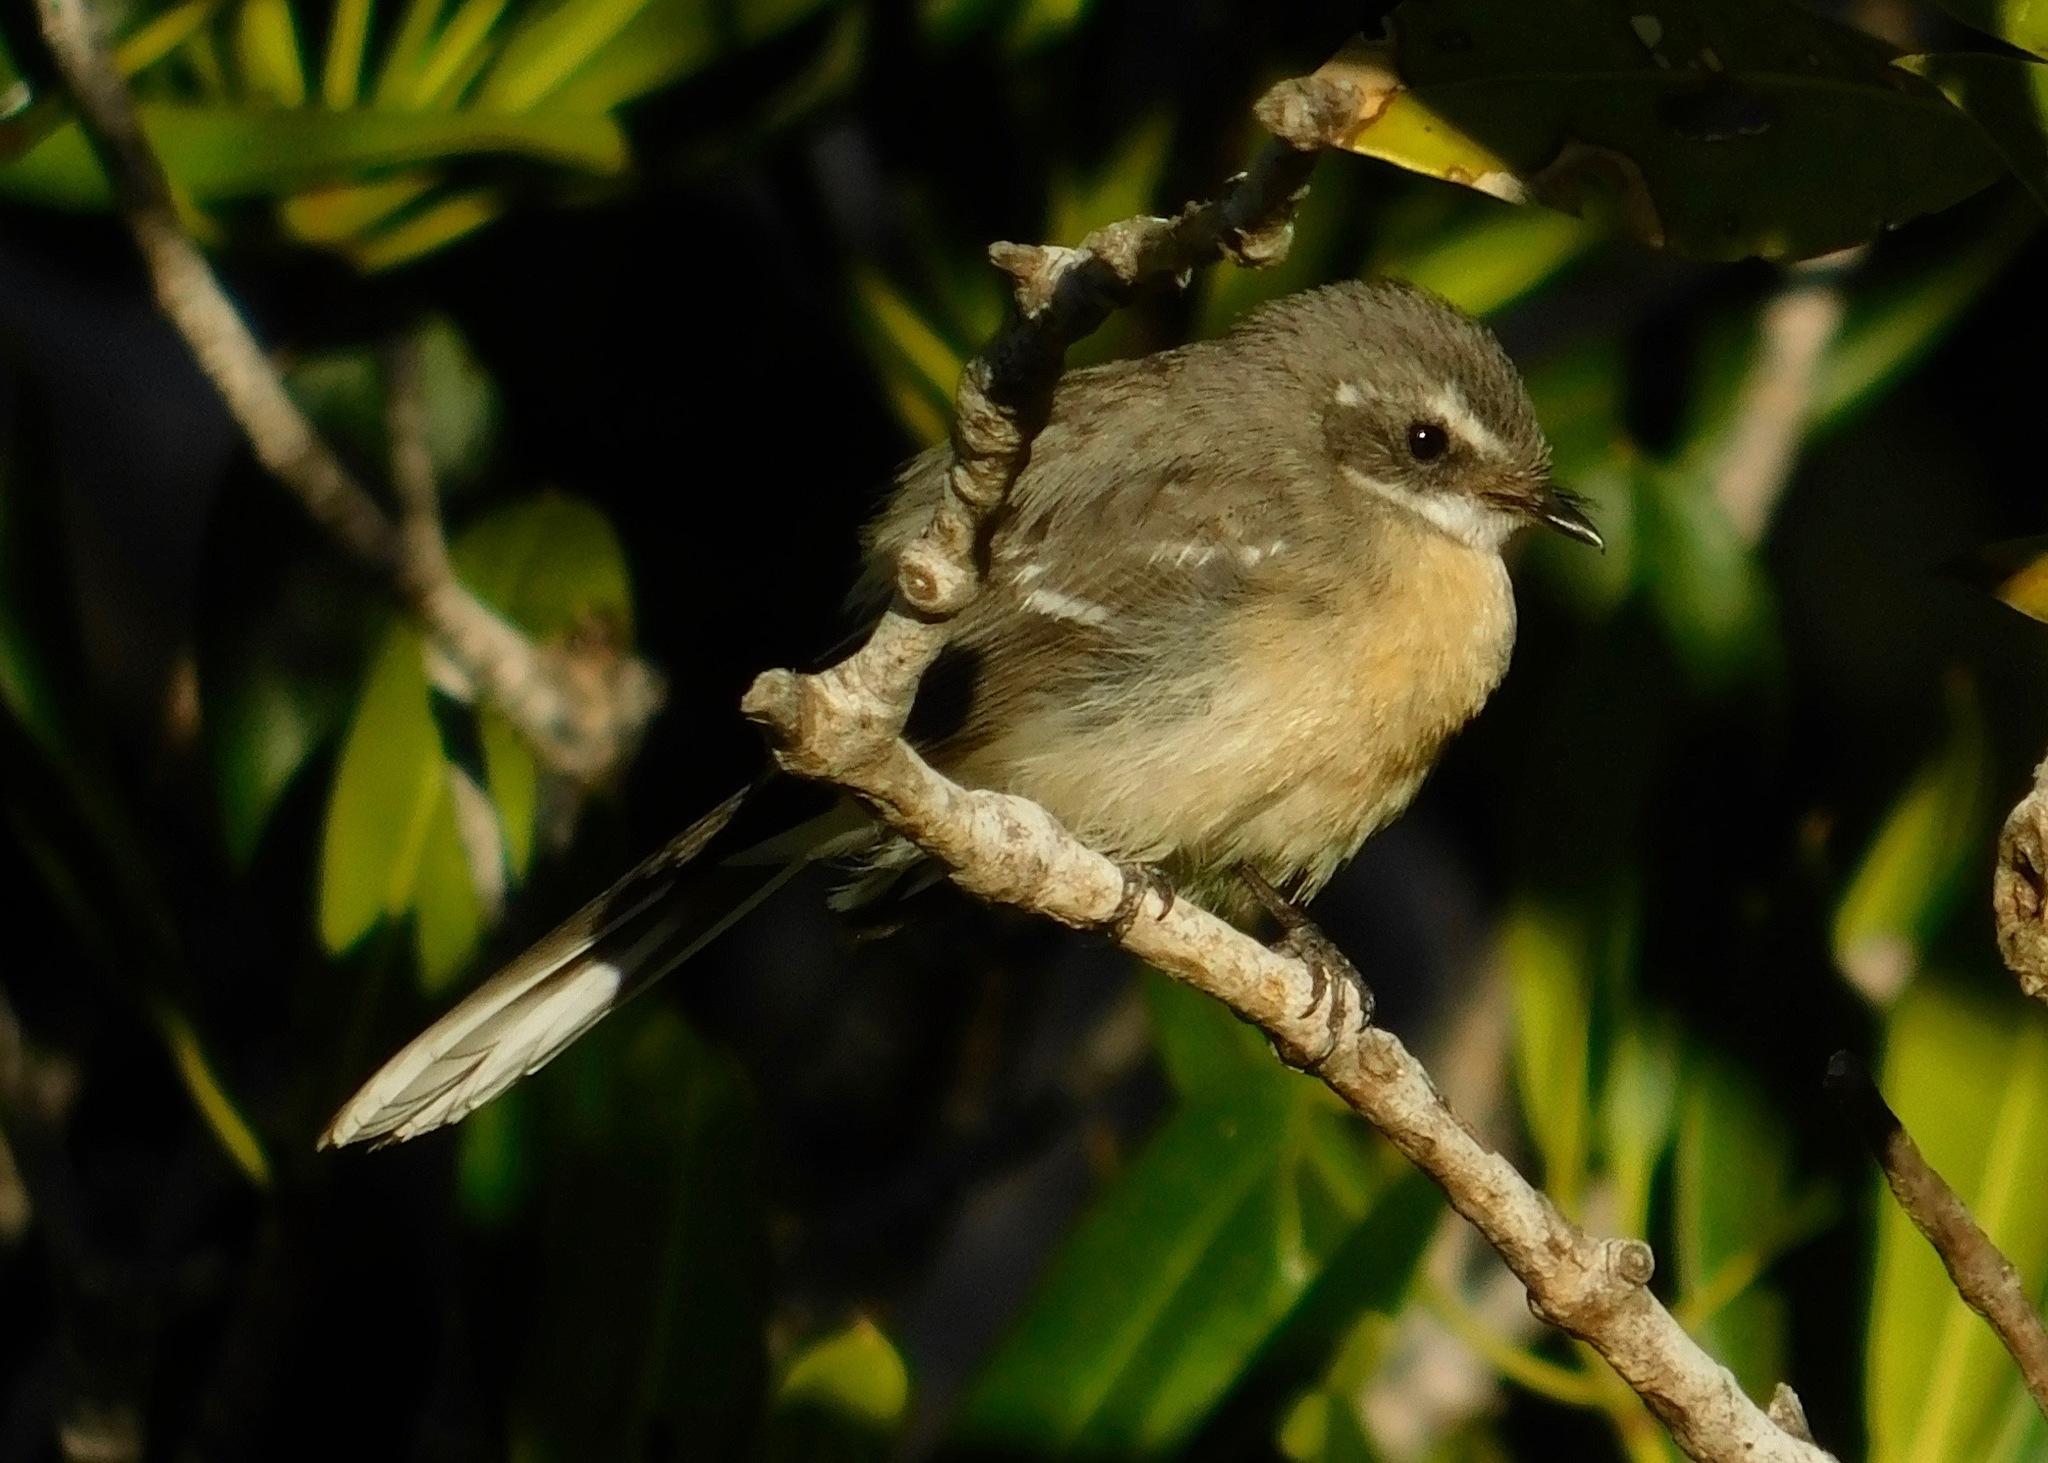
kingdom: Animalia
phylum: Chordata
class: Aves
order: Passeriformes
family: Rhipiduridae
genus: Rhipidura
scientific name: Rhipidura phasiana
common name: Mangrove fantail
